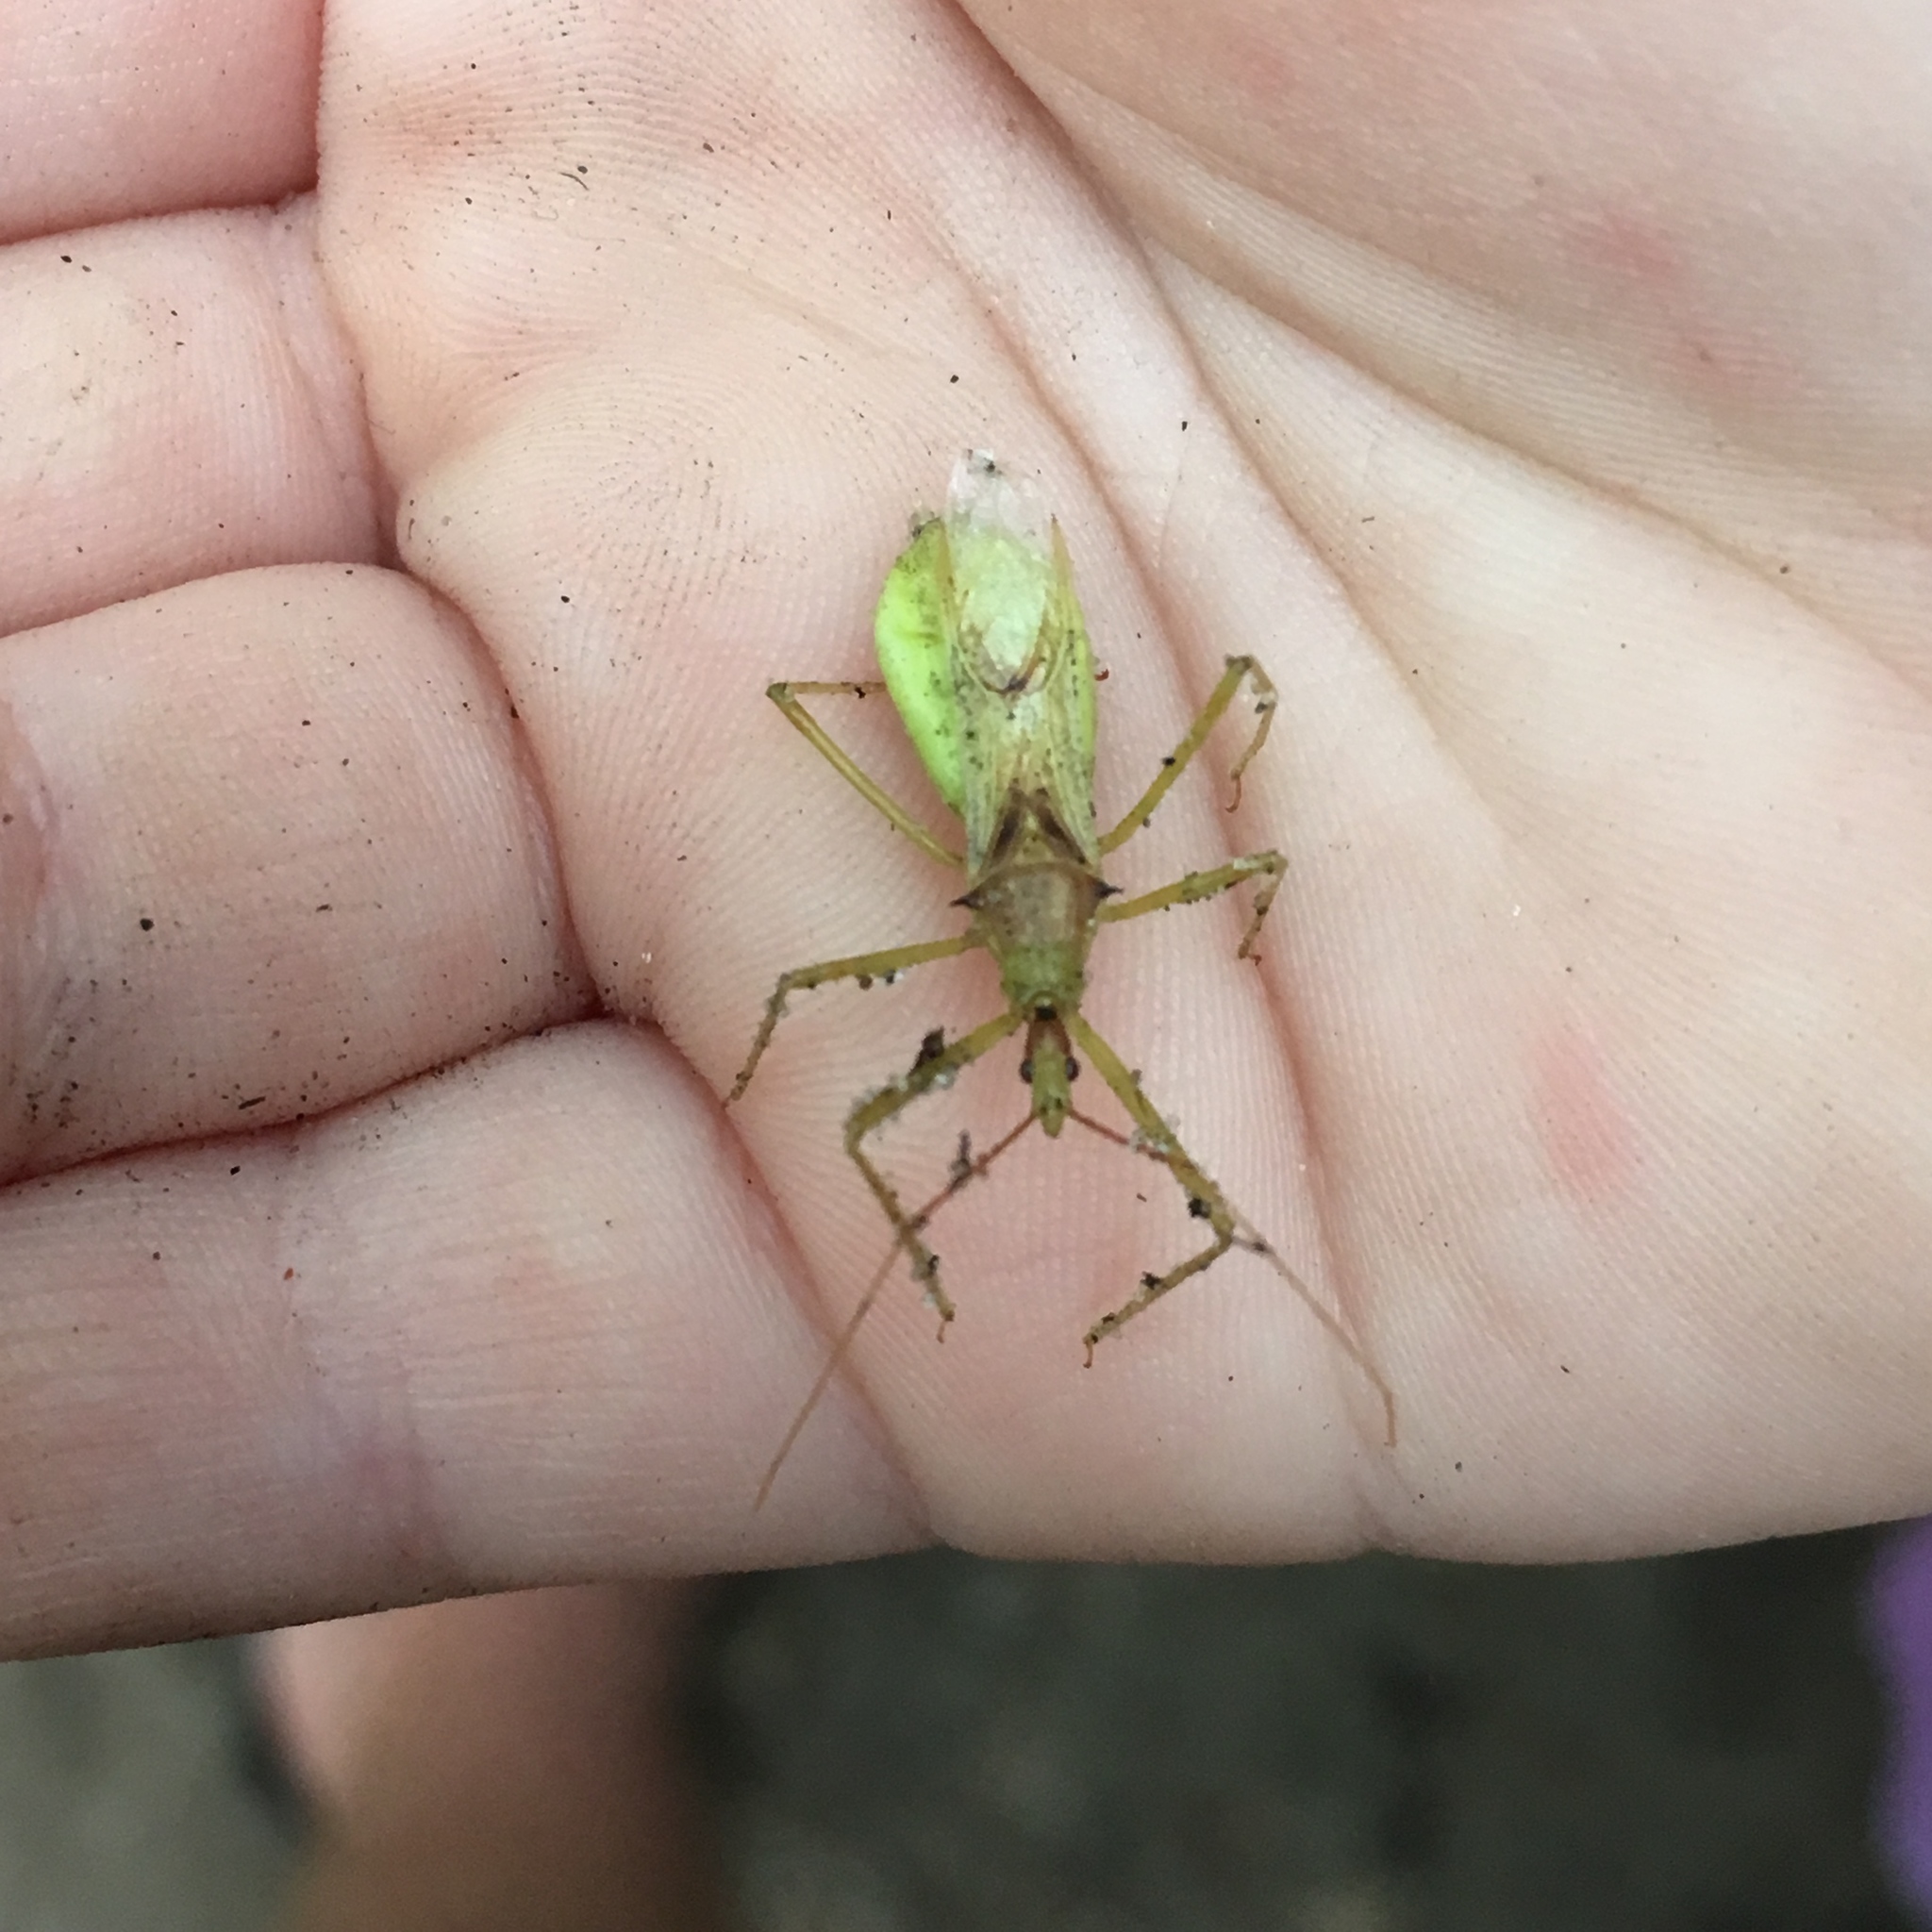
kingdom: Animalia
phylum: Arthropoda
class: Insecta
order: Hemiptera
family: Reduviidae
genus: Zelus
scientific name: Zelus luridus
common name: Pale green assassin bug
